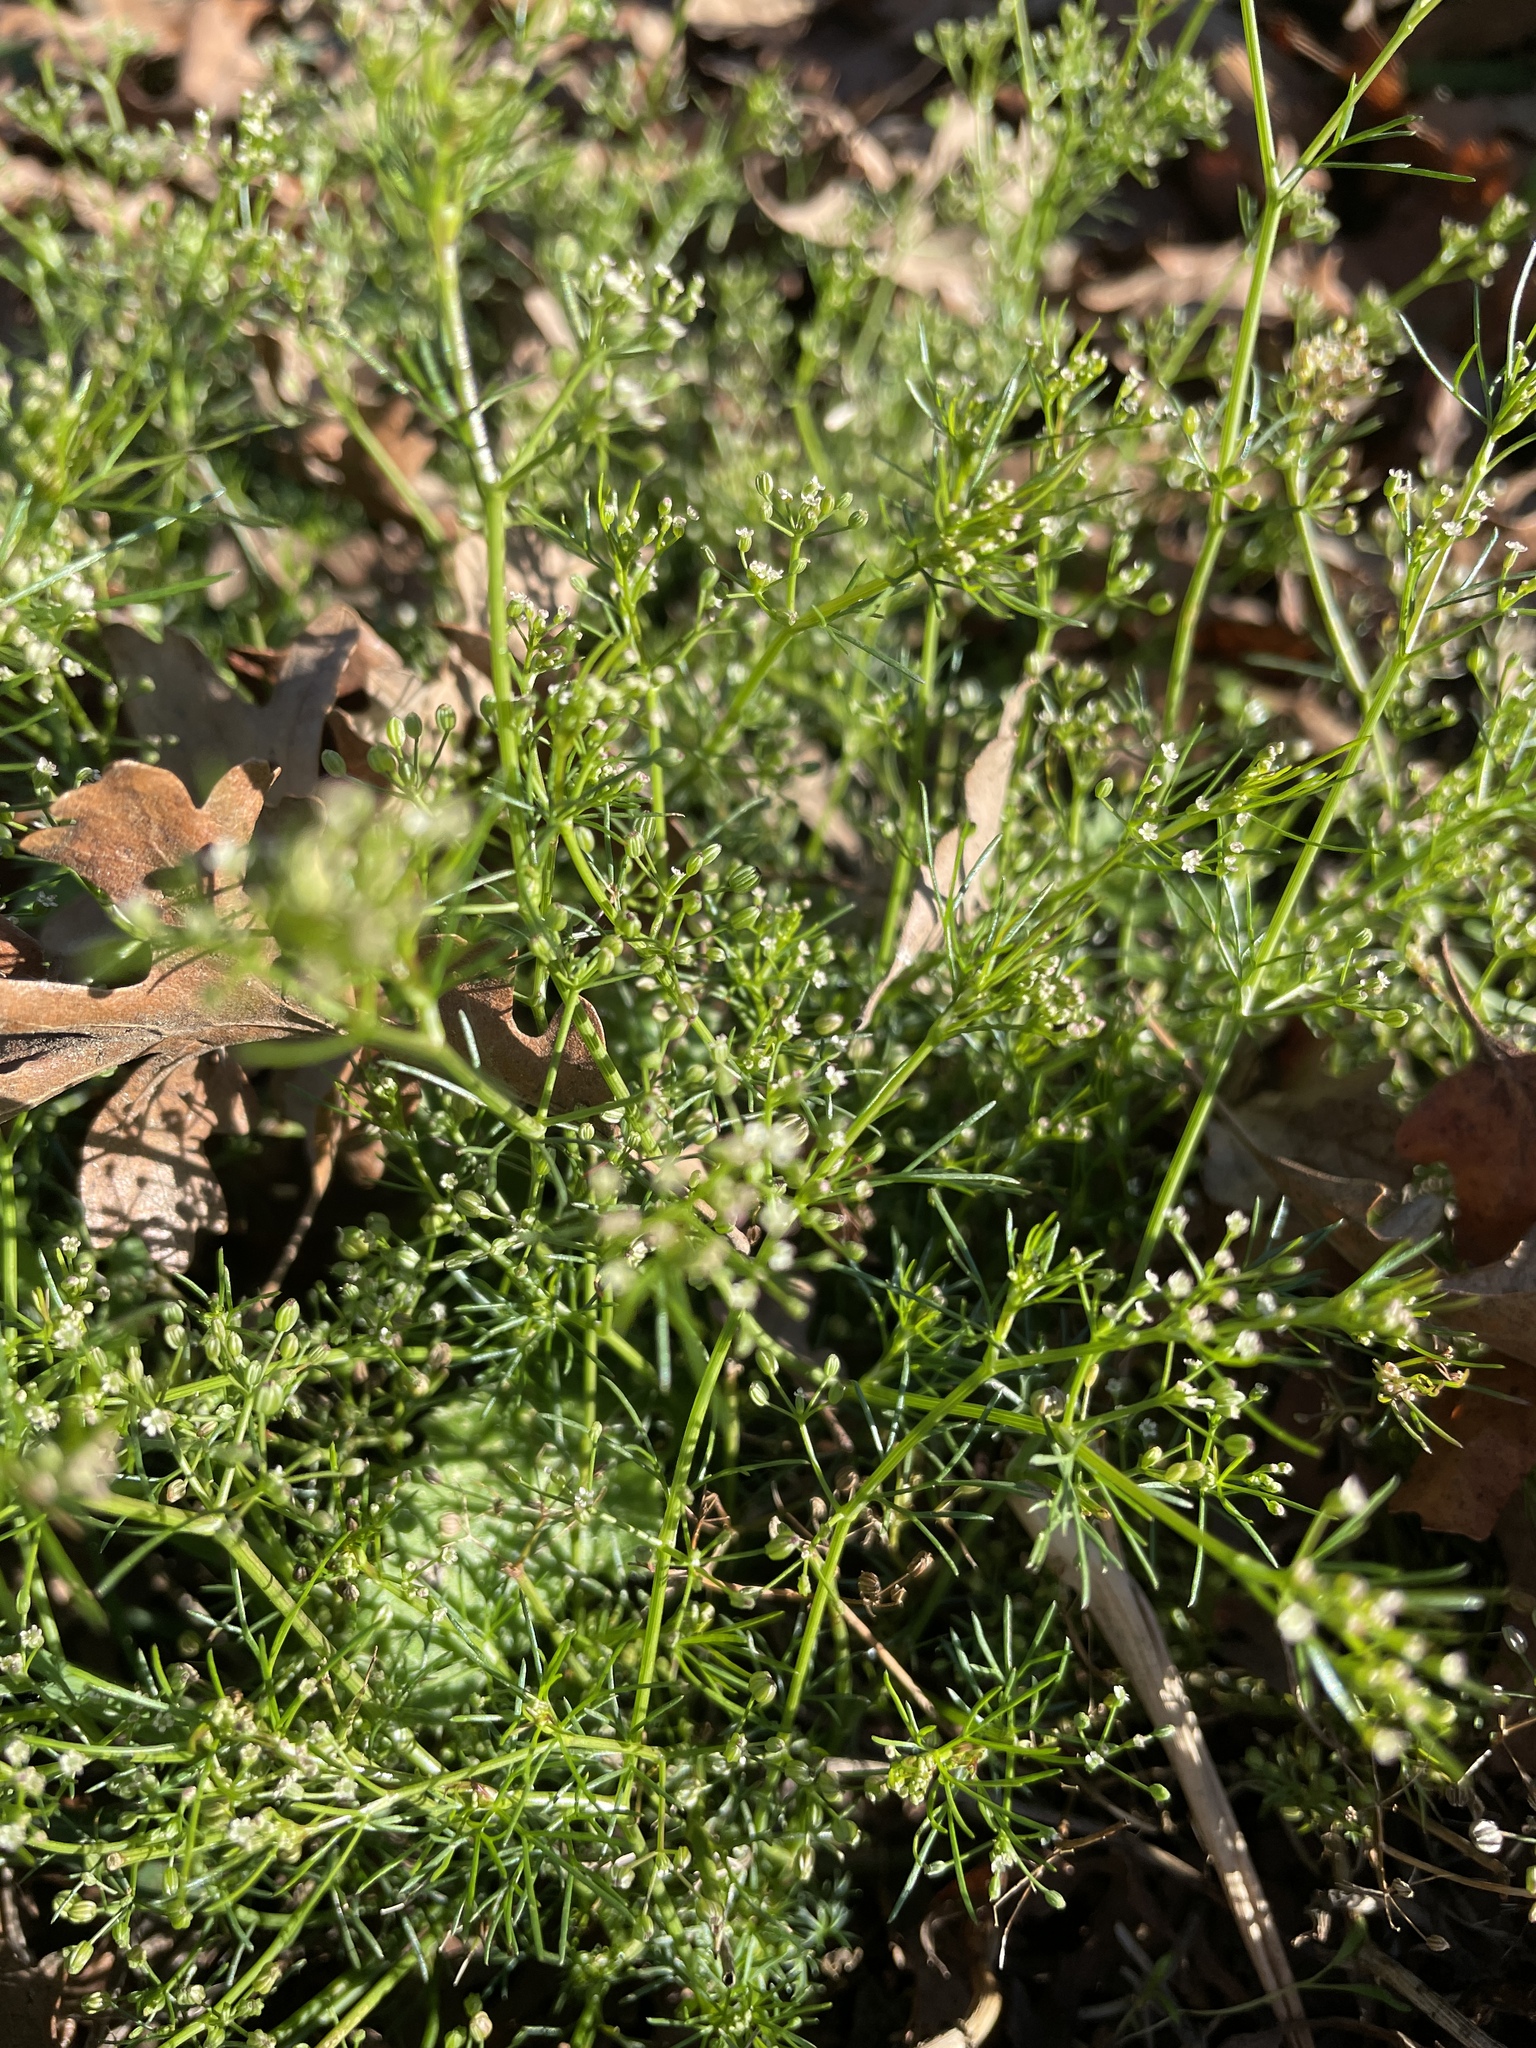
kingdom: Plantae
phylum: Tracheophyta
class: Magnoliopsida
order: Apiales
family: Apiaceae
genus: Cyclospermum
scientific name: Cyclospermum leptophyllum
